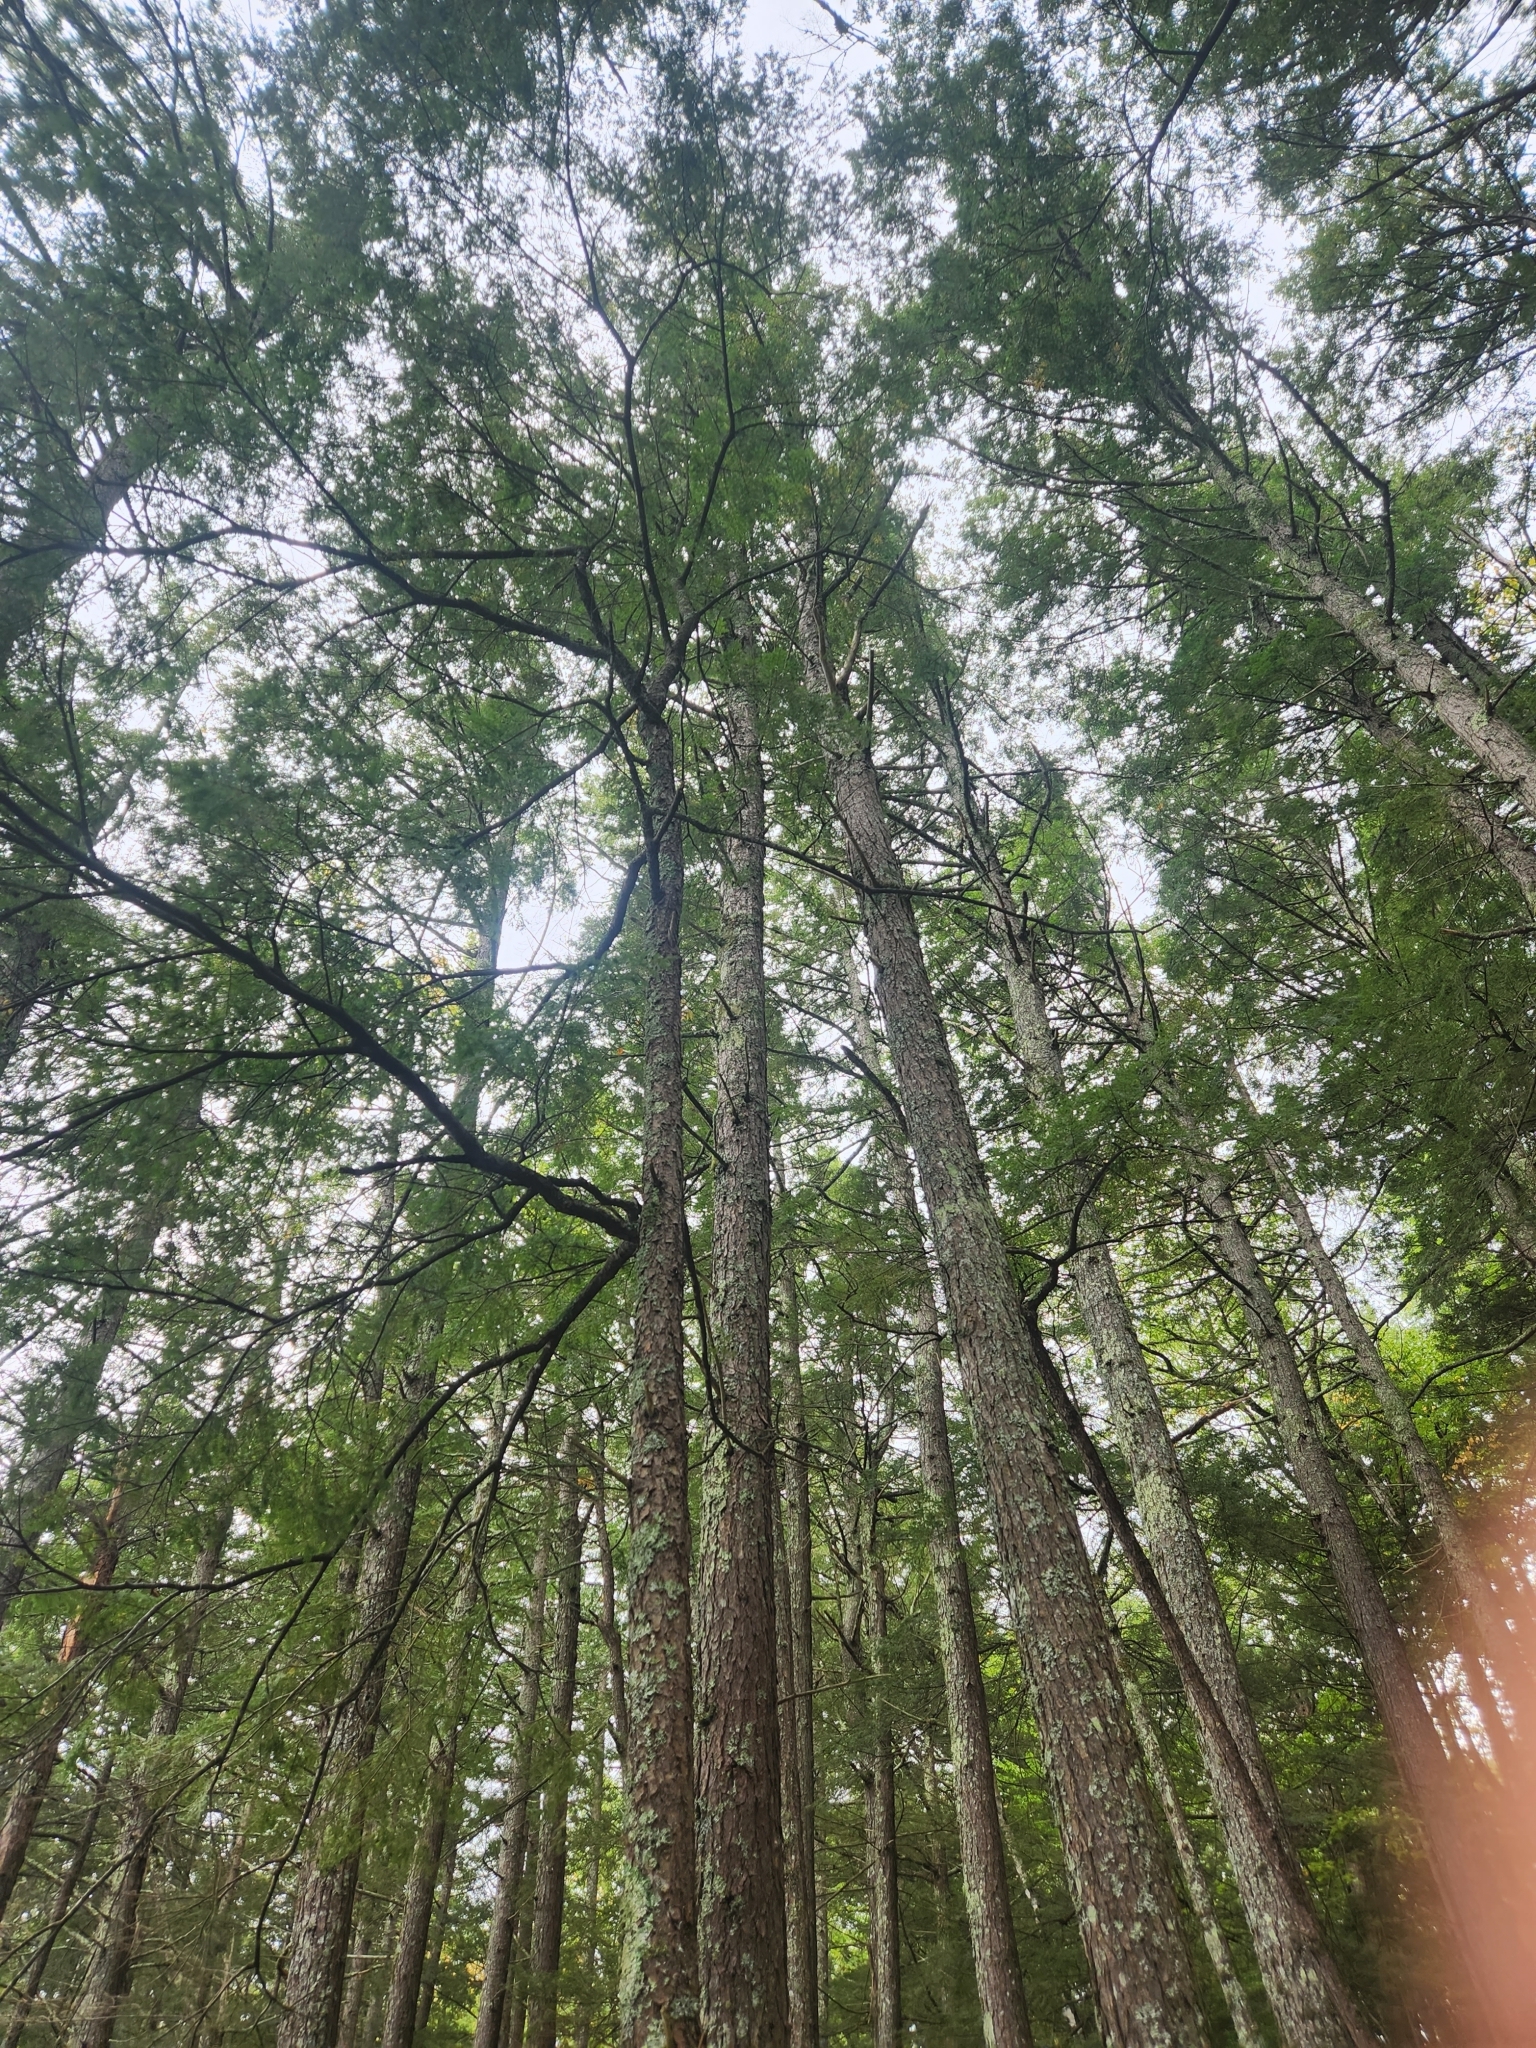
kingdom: Plantae
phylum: Tracheophyta
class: Pinopsida
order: Pinales
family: Pinaceae
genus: Tsuga
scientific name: Tsuga canadensis
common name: Eastern hemlock
